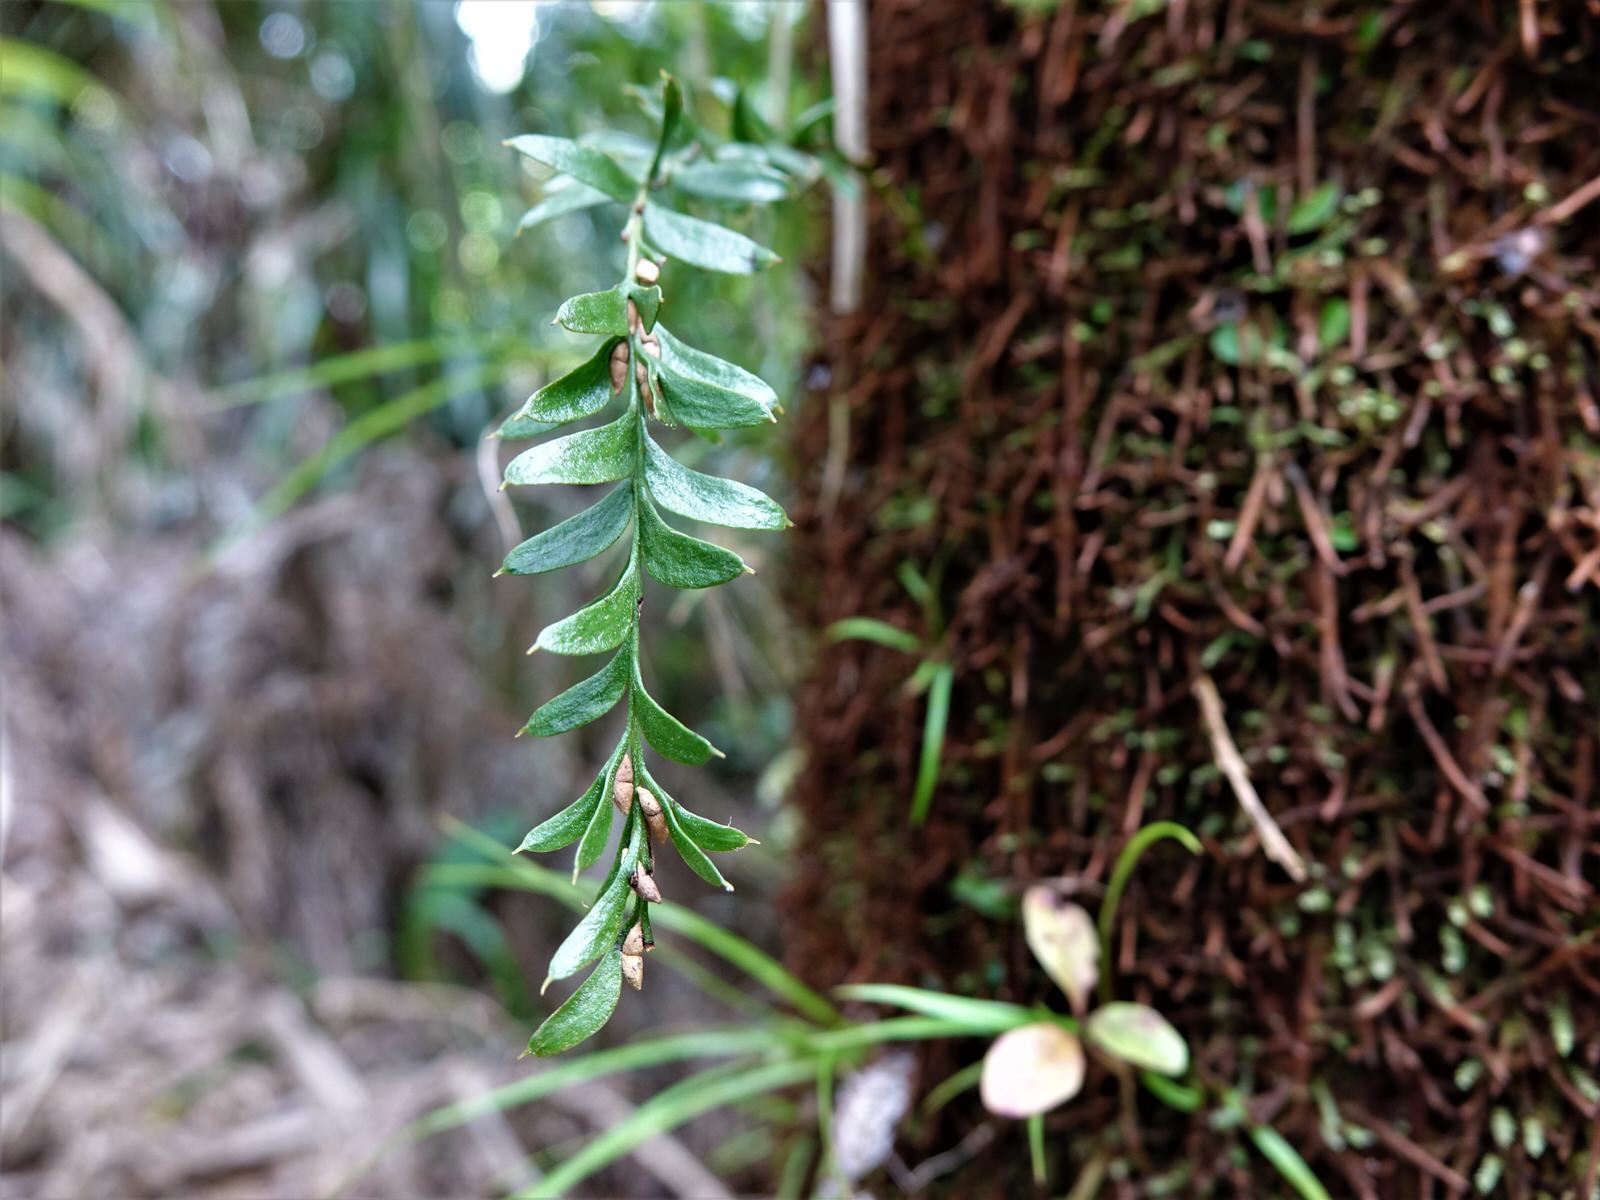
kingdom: Plantae
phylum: Tracheophyta
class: Polypodiopsida
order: Psilotales
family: Psilotaceae
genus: Tmesipteris
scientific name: Tmesipteris tannensis
